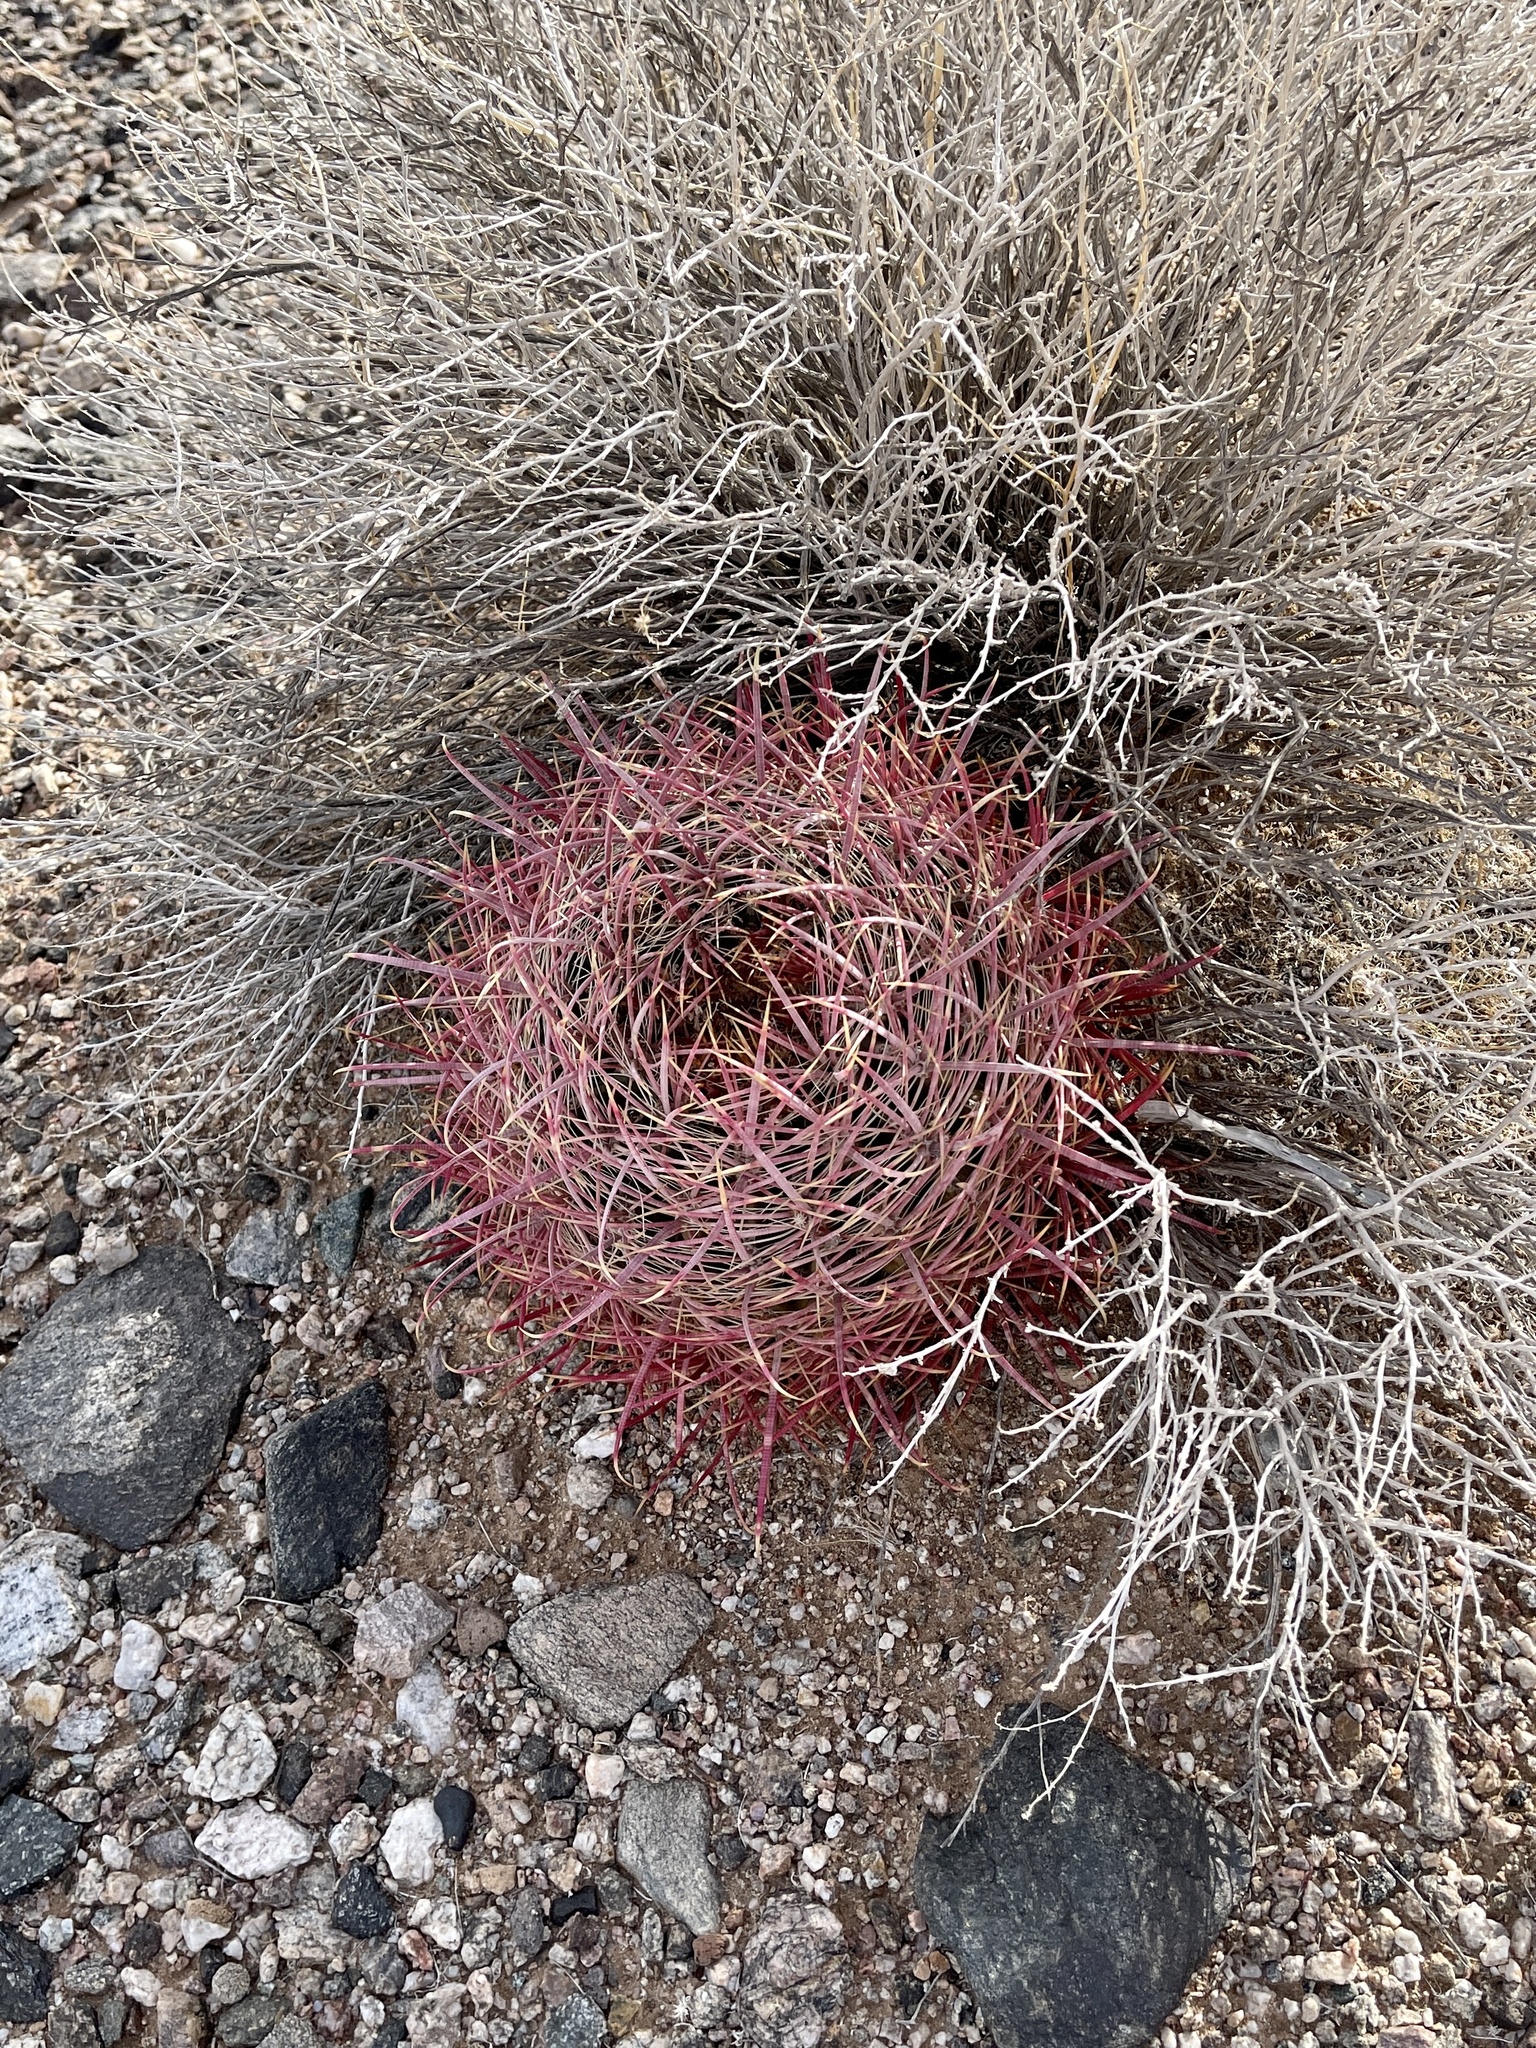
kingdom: Plantae
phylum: Tracheophyta
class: Magnoliopsida
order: Caryophyllales
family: Cactaceae
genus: Ferocactus
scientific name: Ferocactus cylindraceus
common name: California barrel cactus
